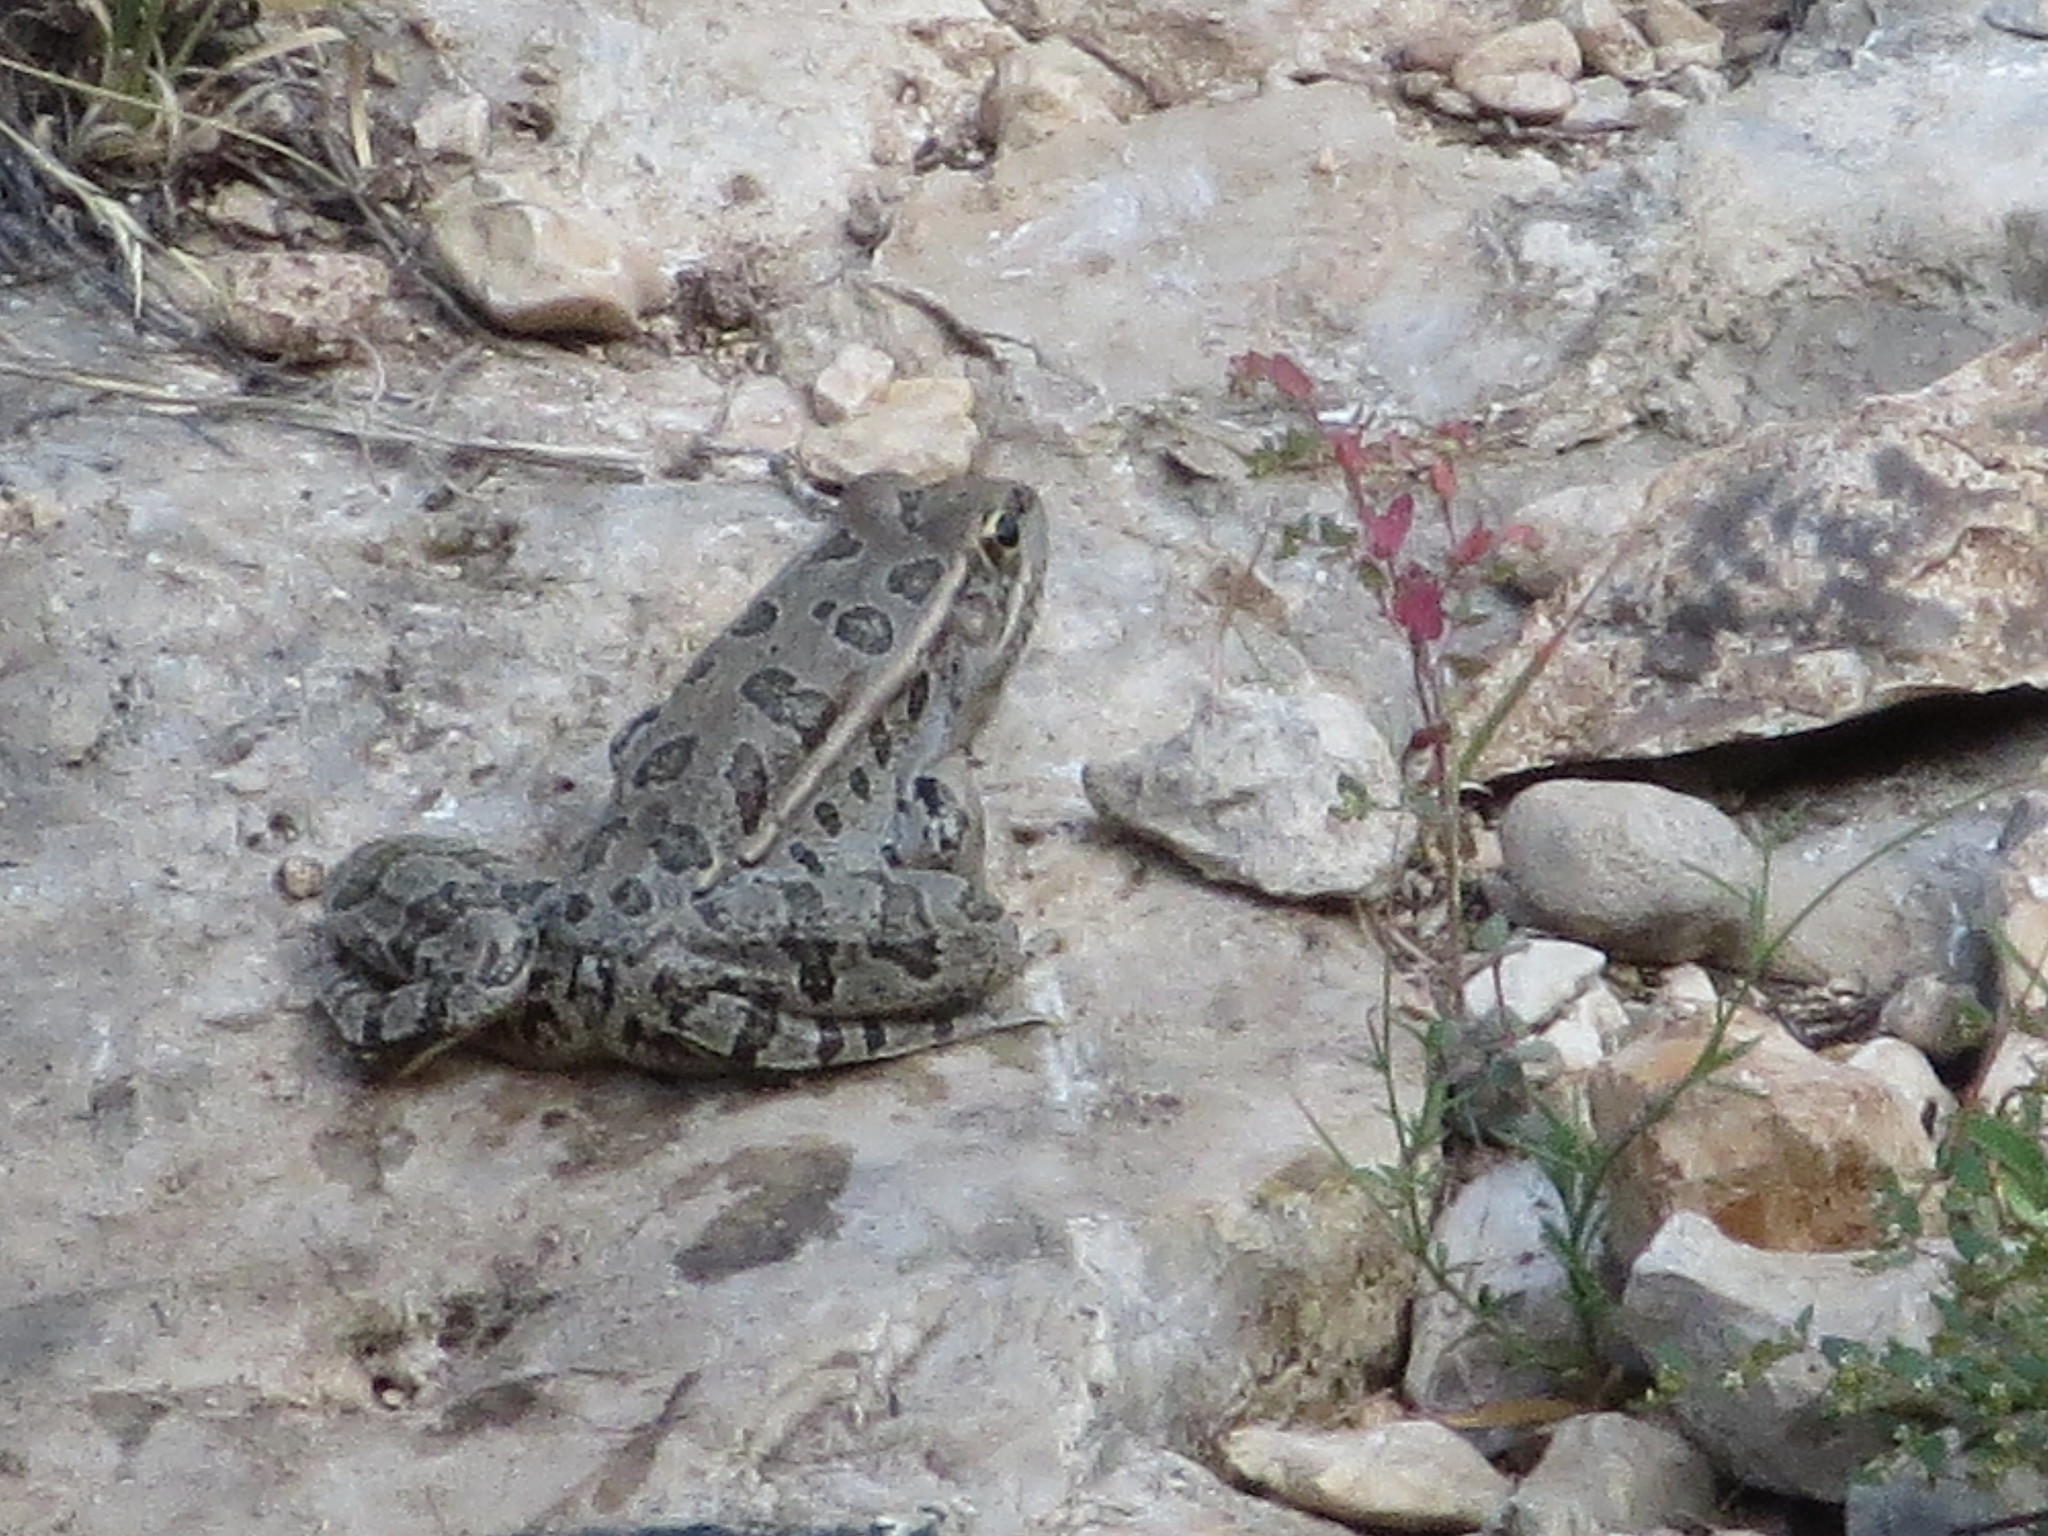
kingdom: Animalia
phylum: Chordata
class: Amphibia
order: Anura
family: Ranidae
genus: Lithobates
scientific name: Lithobates berlandieri
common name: Rio grande leopard frog
